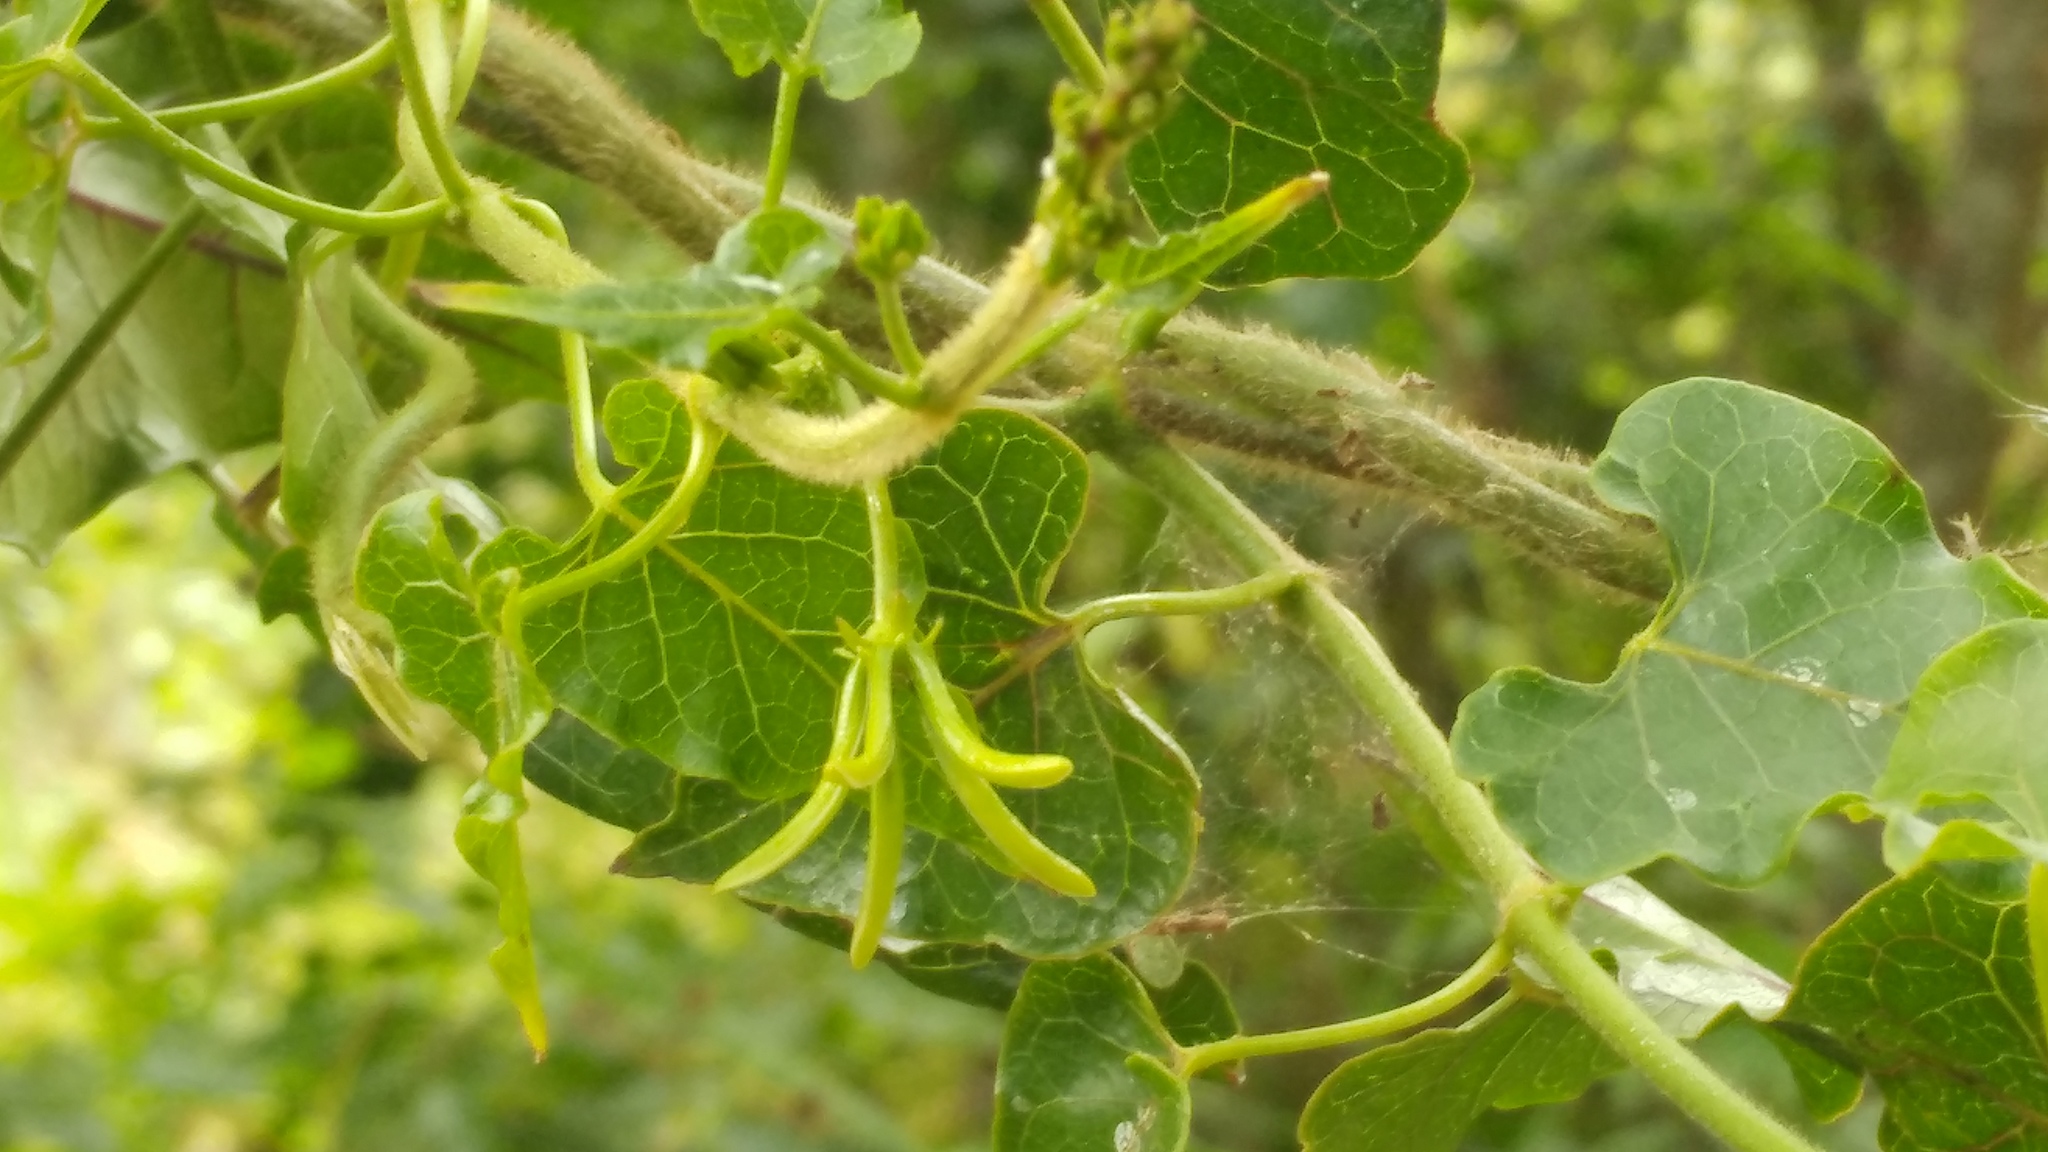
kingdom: Plantae
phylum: Tracheophyta
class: Magnoliopsida
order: Gentianales
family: Apocynaceae
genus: Gonolobus
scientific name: Gonolobus calcaratus
